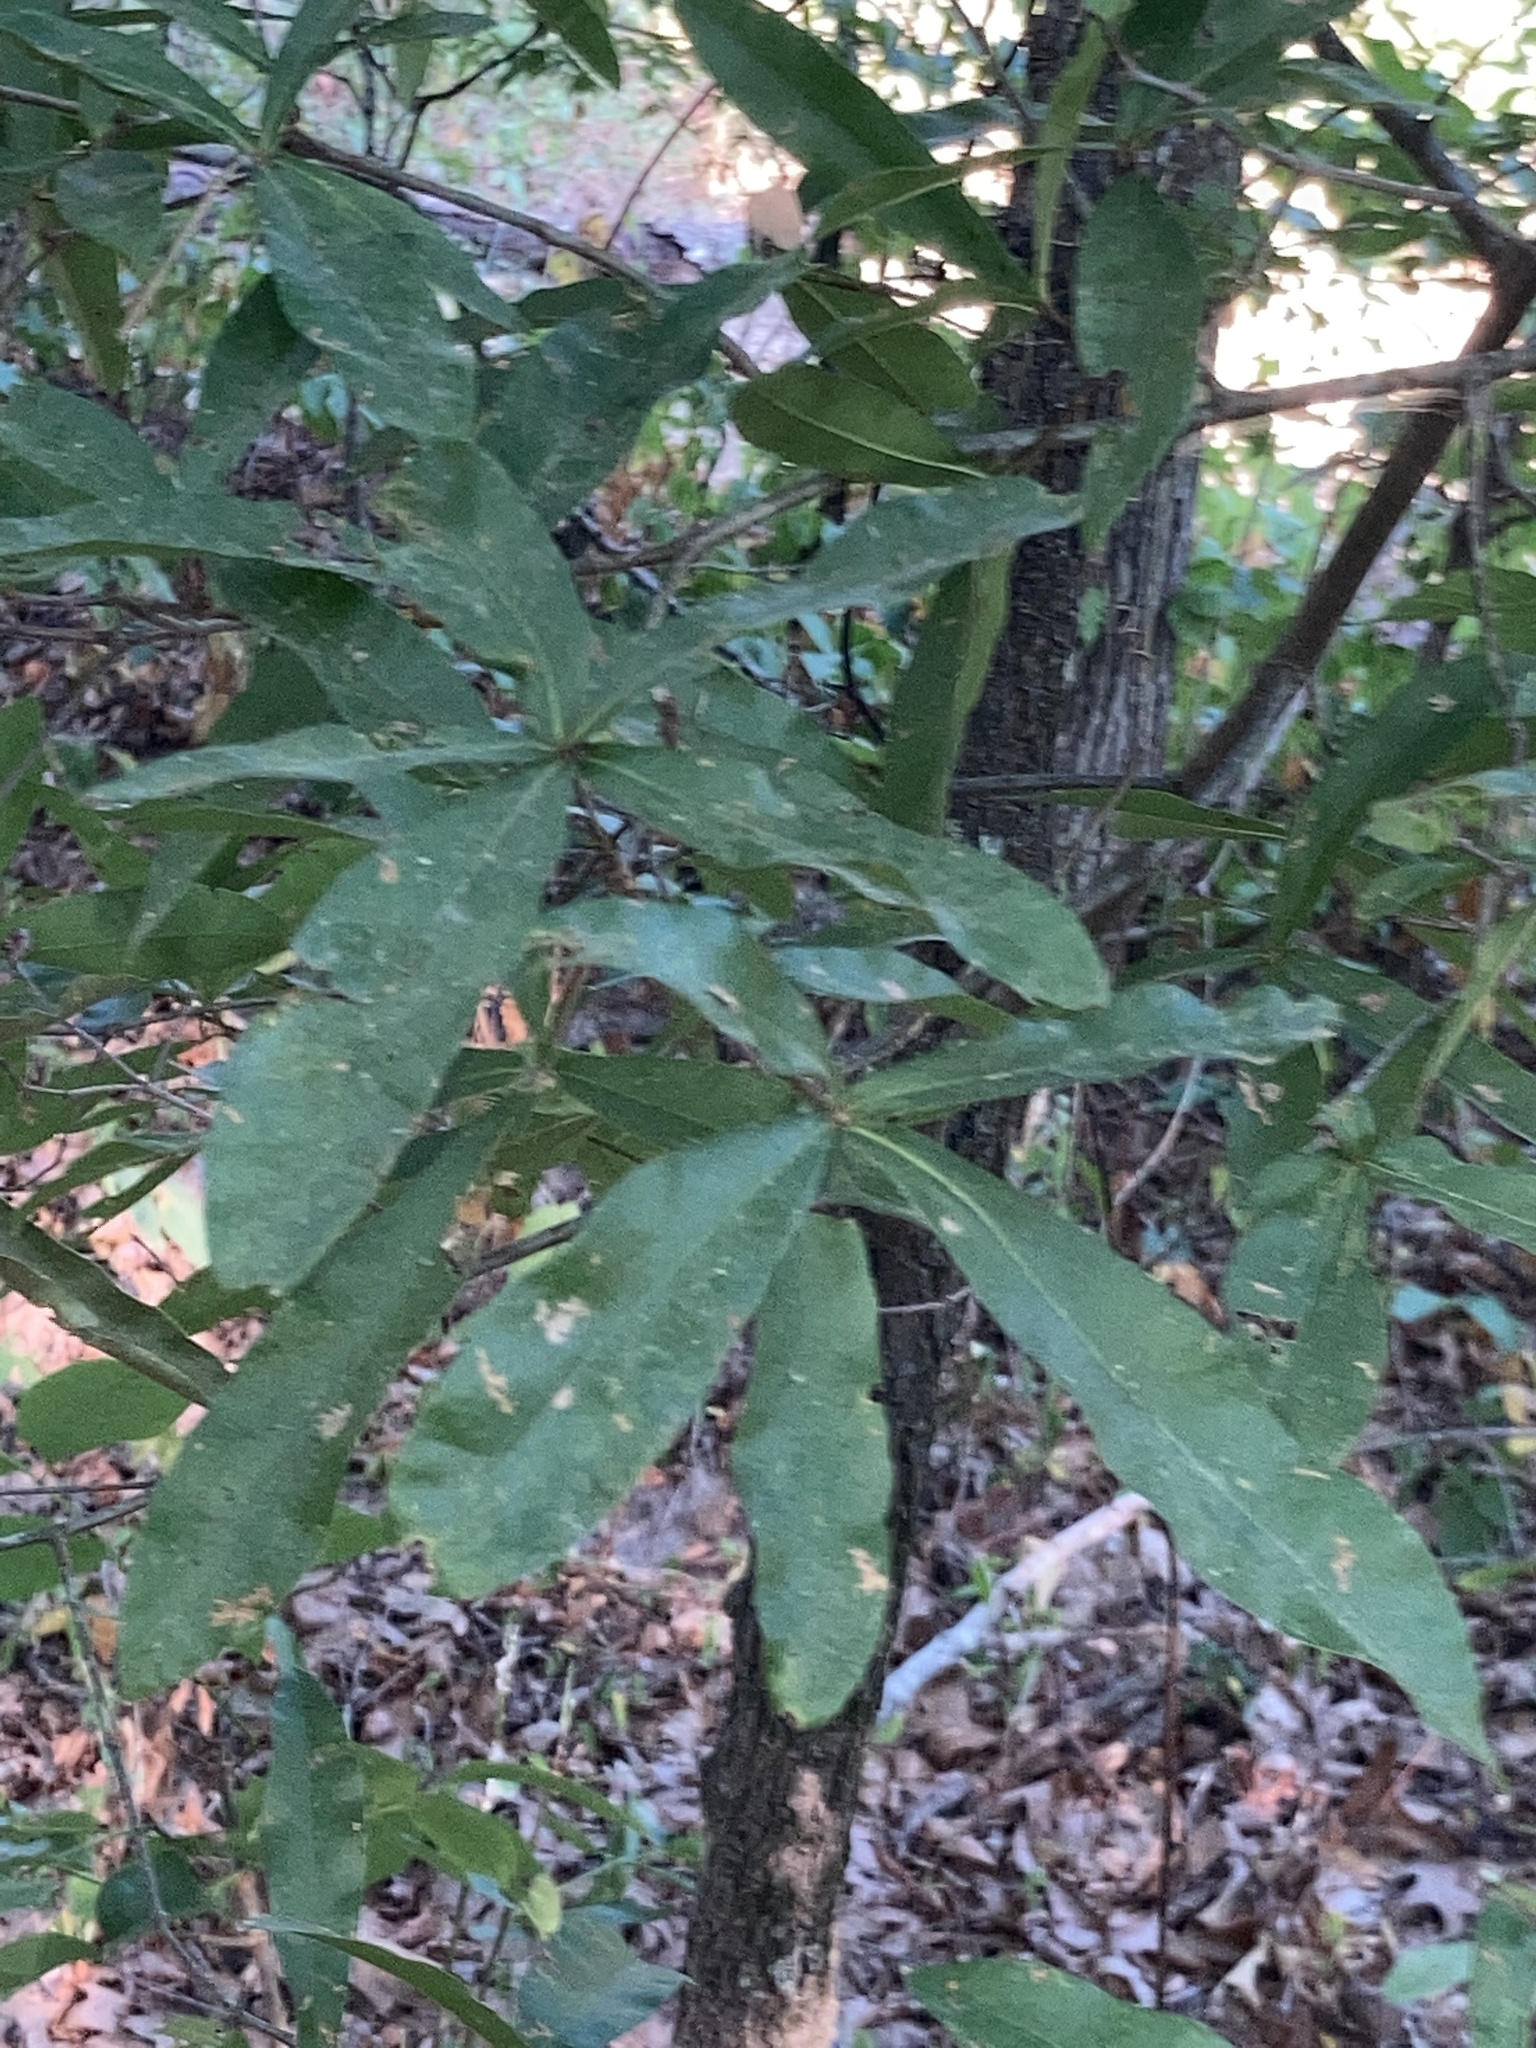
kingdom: Plantae
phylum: Tracheophyta
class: Magnoliopsida
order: Fagales
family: Fagaceae
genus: Quercus
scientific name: Quercus phellos
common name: Willow oak
